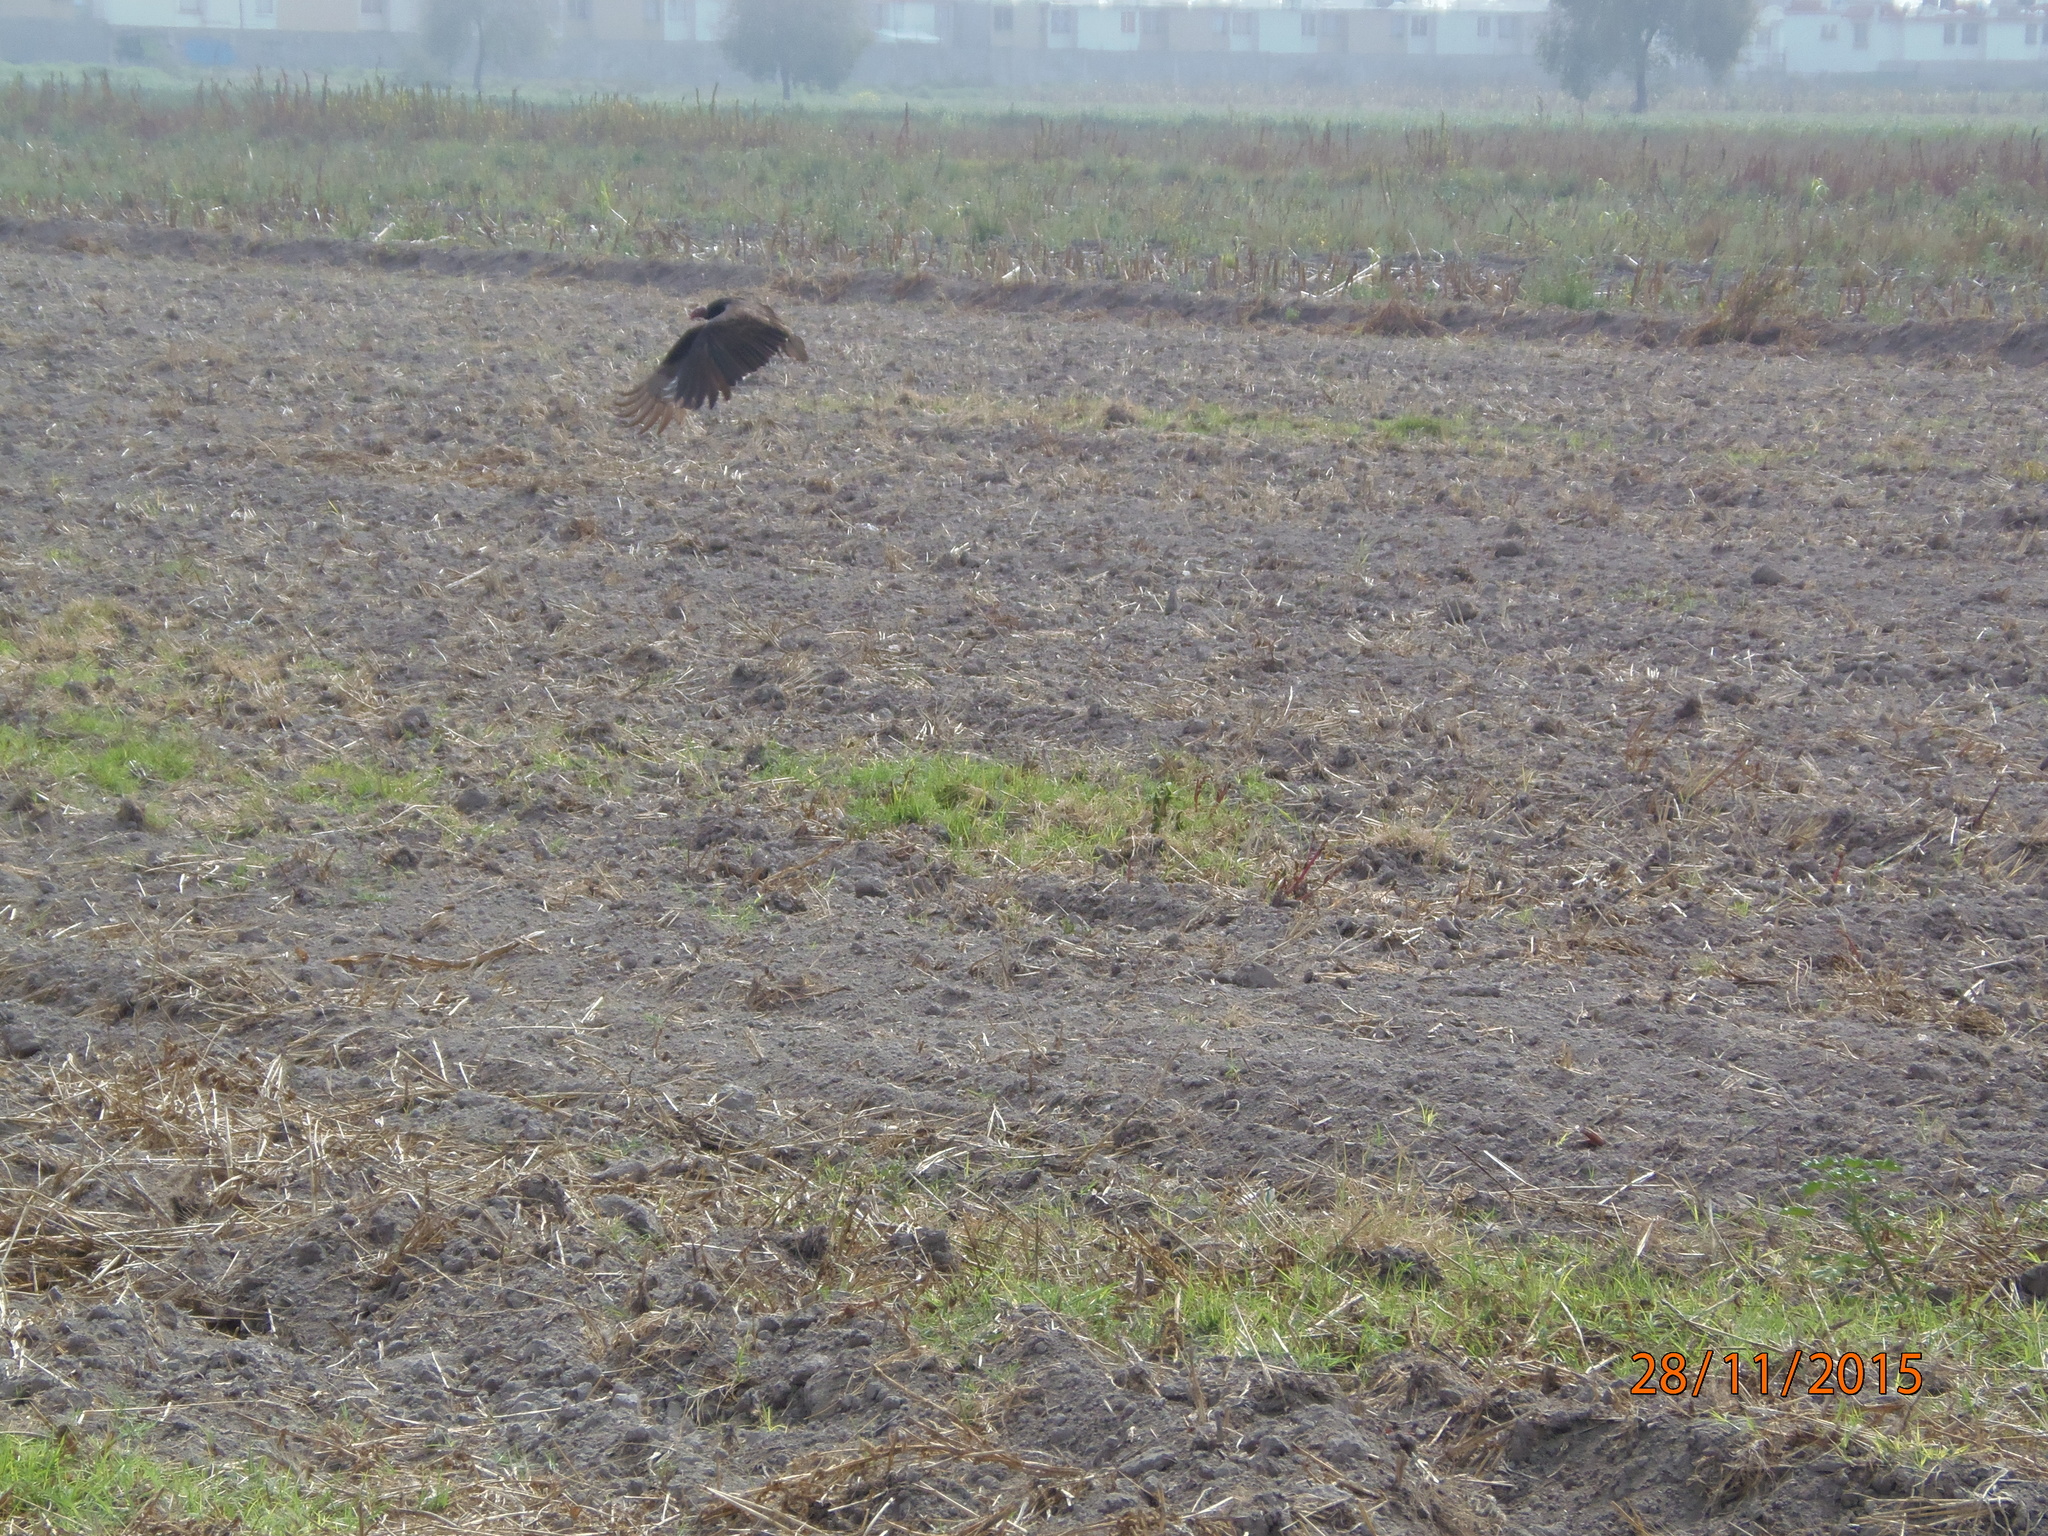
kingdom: Animalia
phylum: Chordata
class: Aves
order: Accipitriformes
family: Cathartidae
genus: Cathartes
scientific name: Cathartes aura
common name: Turkey vulture
